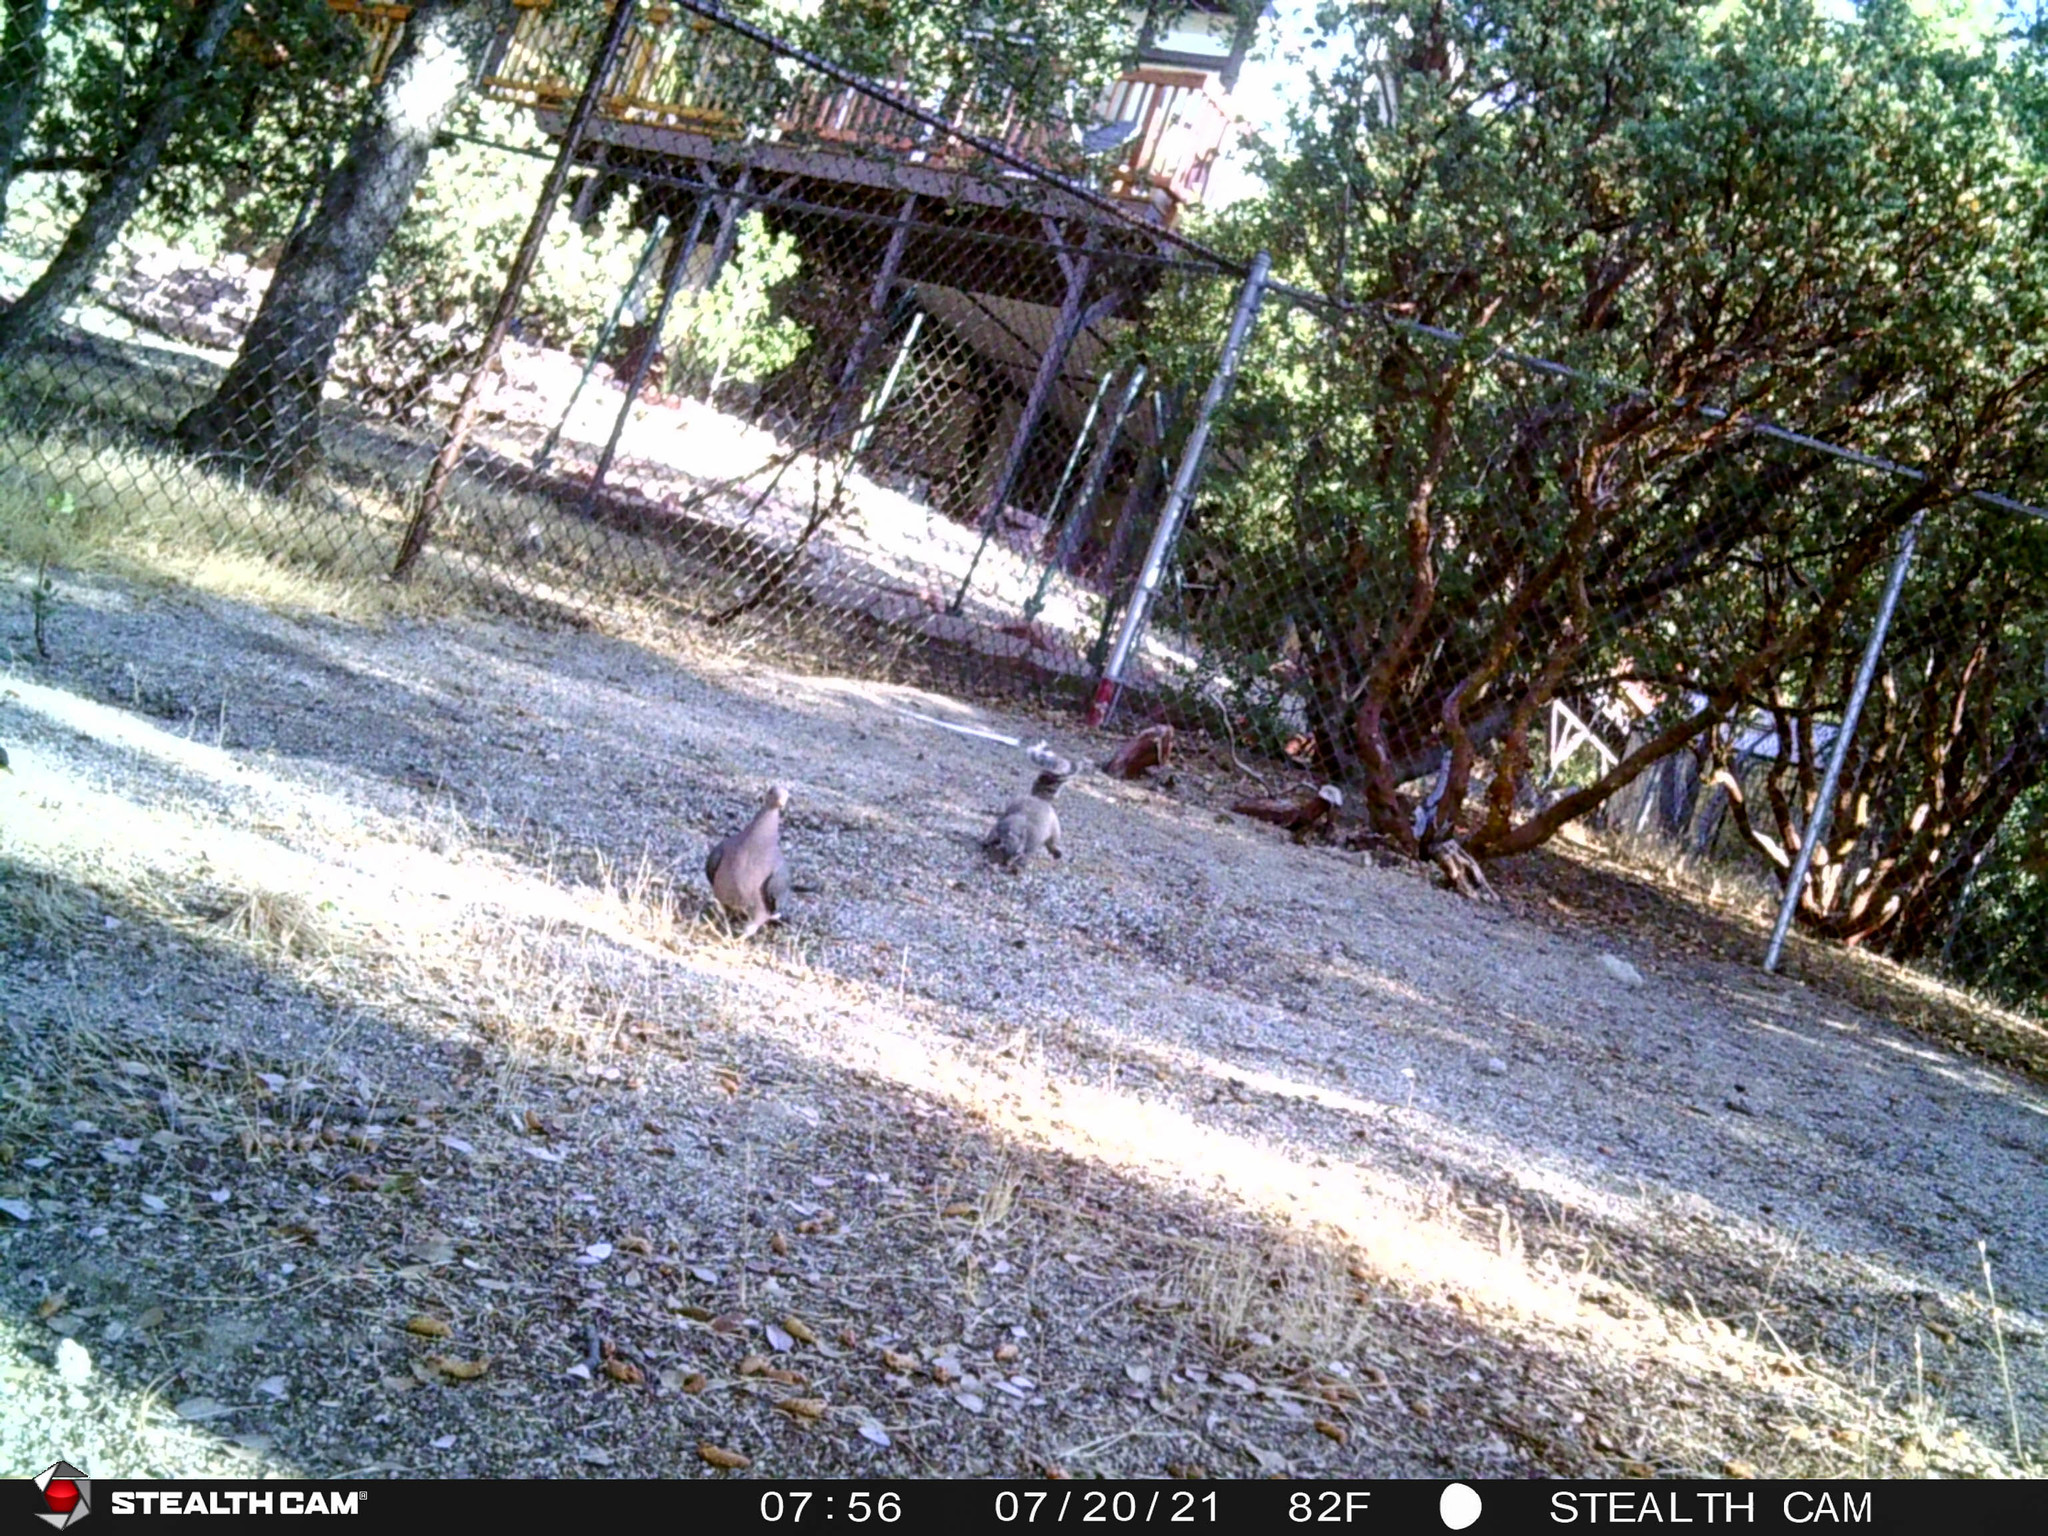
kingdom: Animalia
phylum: Chordata
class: Mammalia
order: Rodentia
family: Sciuridae
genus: Sciurus
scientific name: Sciurus griseus
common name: Western gray squirrel
